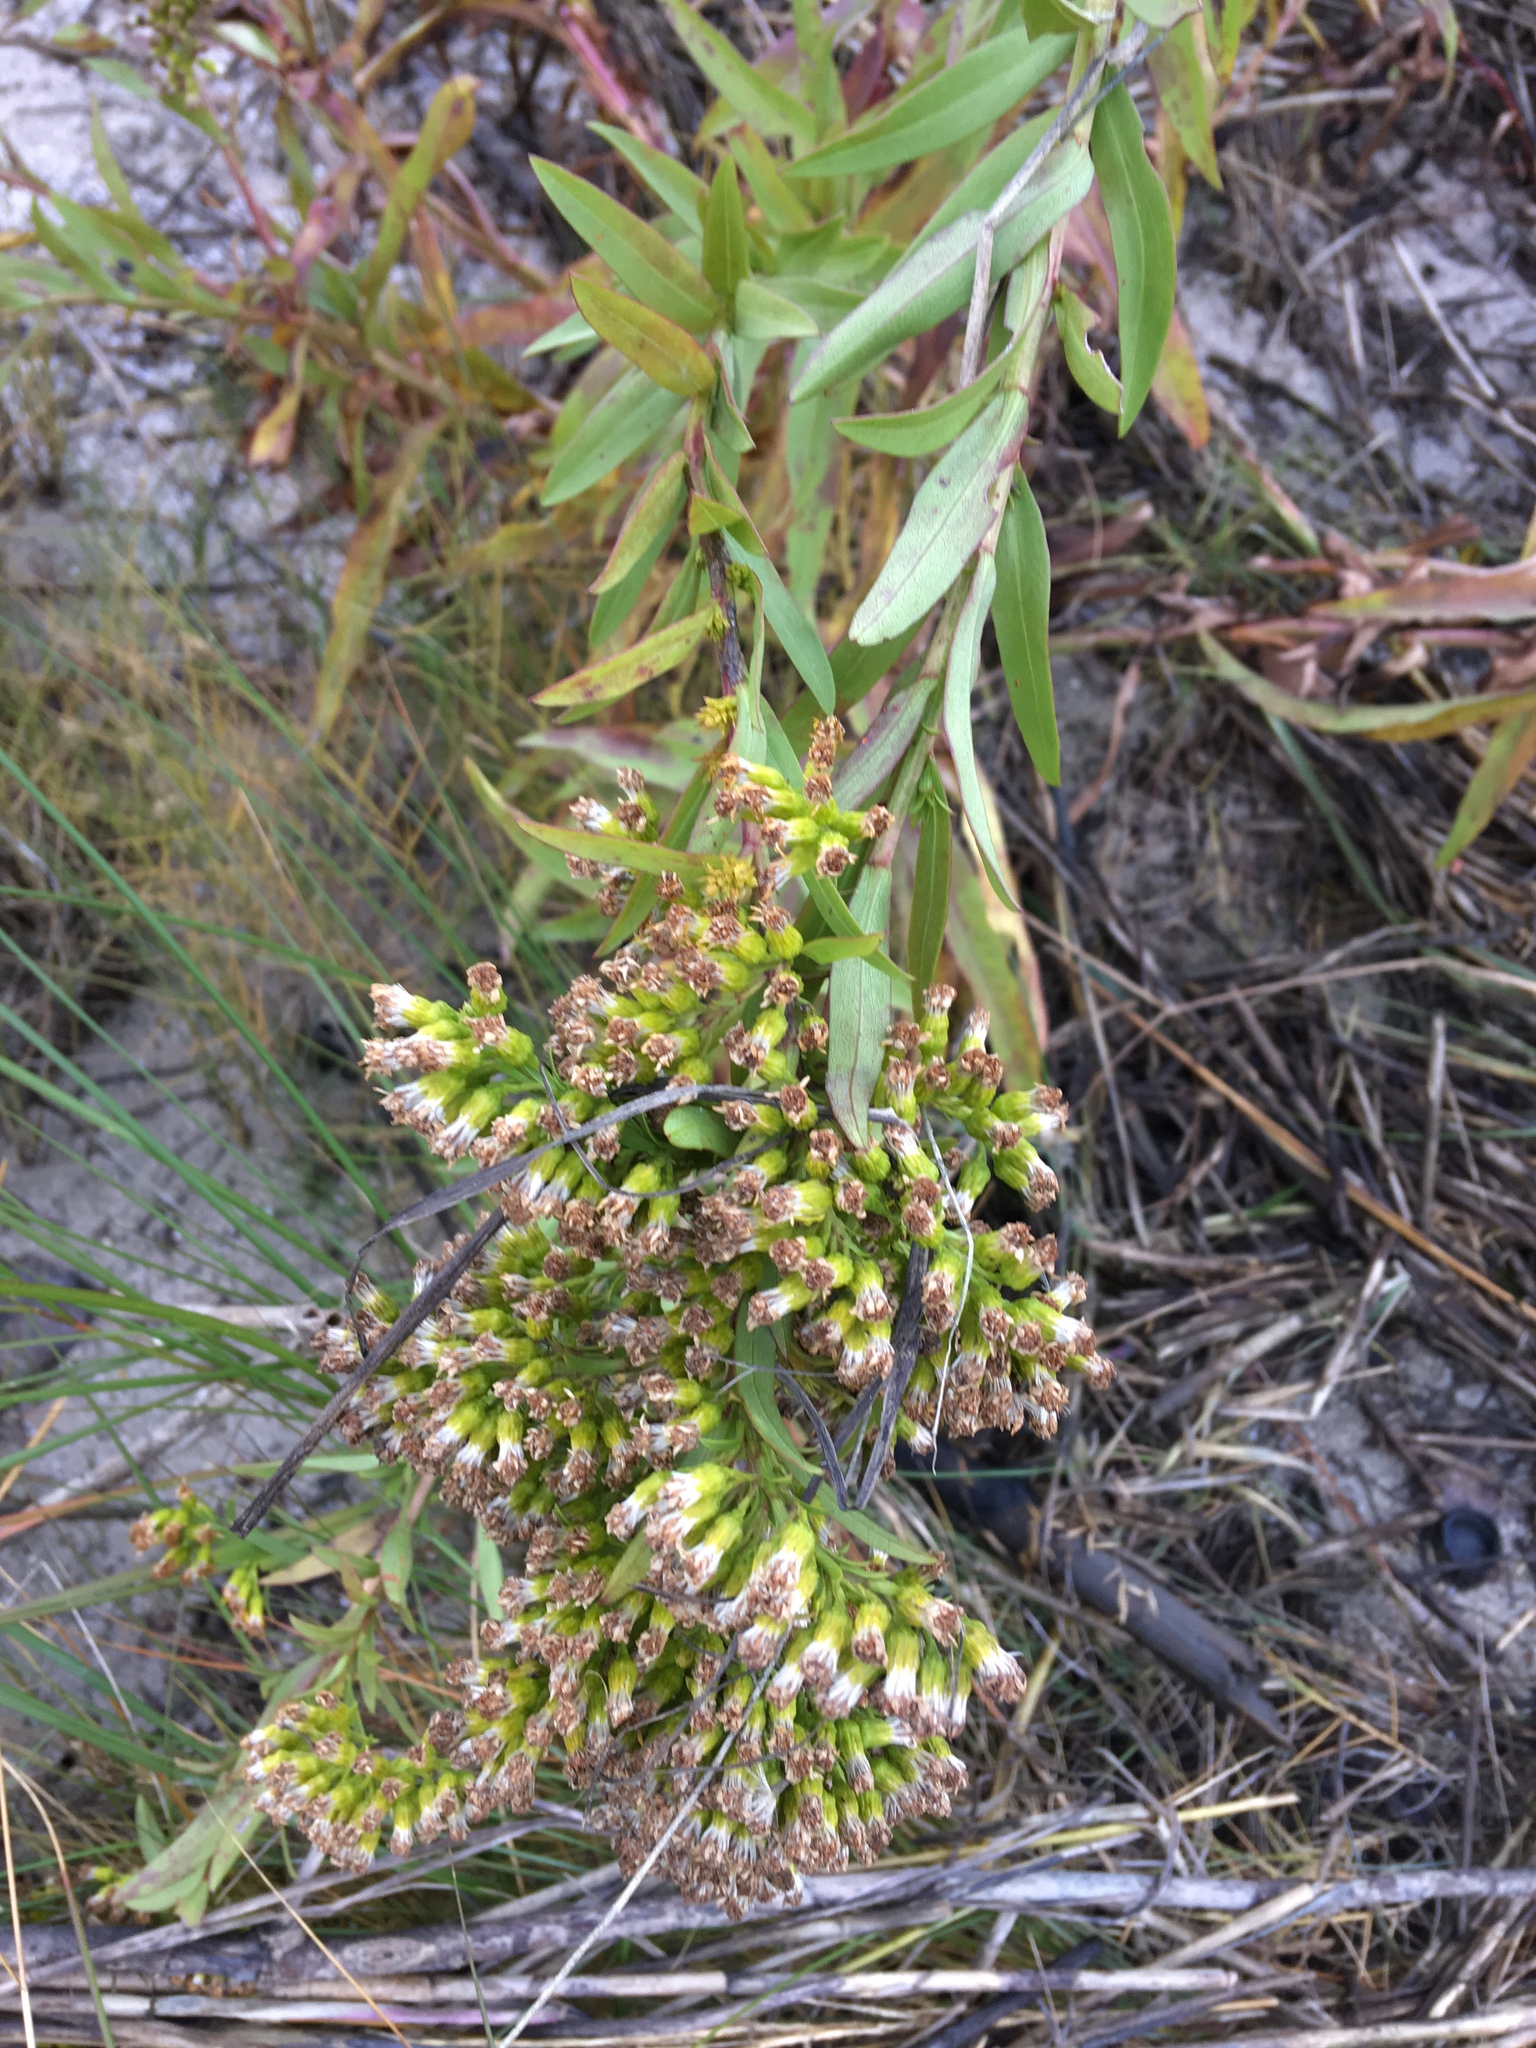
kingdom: Plantae
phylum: Tracheophyta
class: Magnoliopsida
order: Asterales
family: Asteraceae
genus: Solidago
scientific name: Solidago sempervirens
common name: Salt-marsh goldenrod
